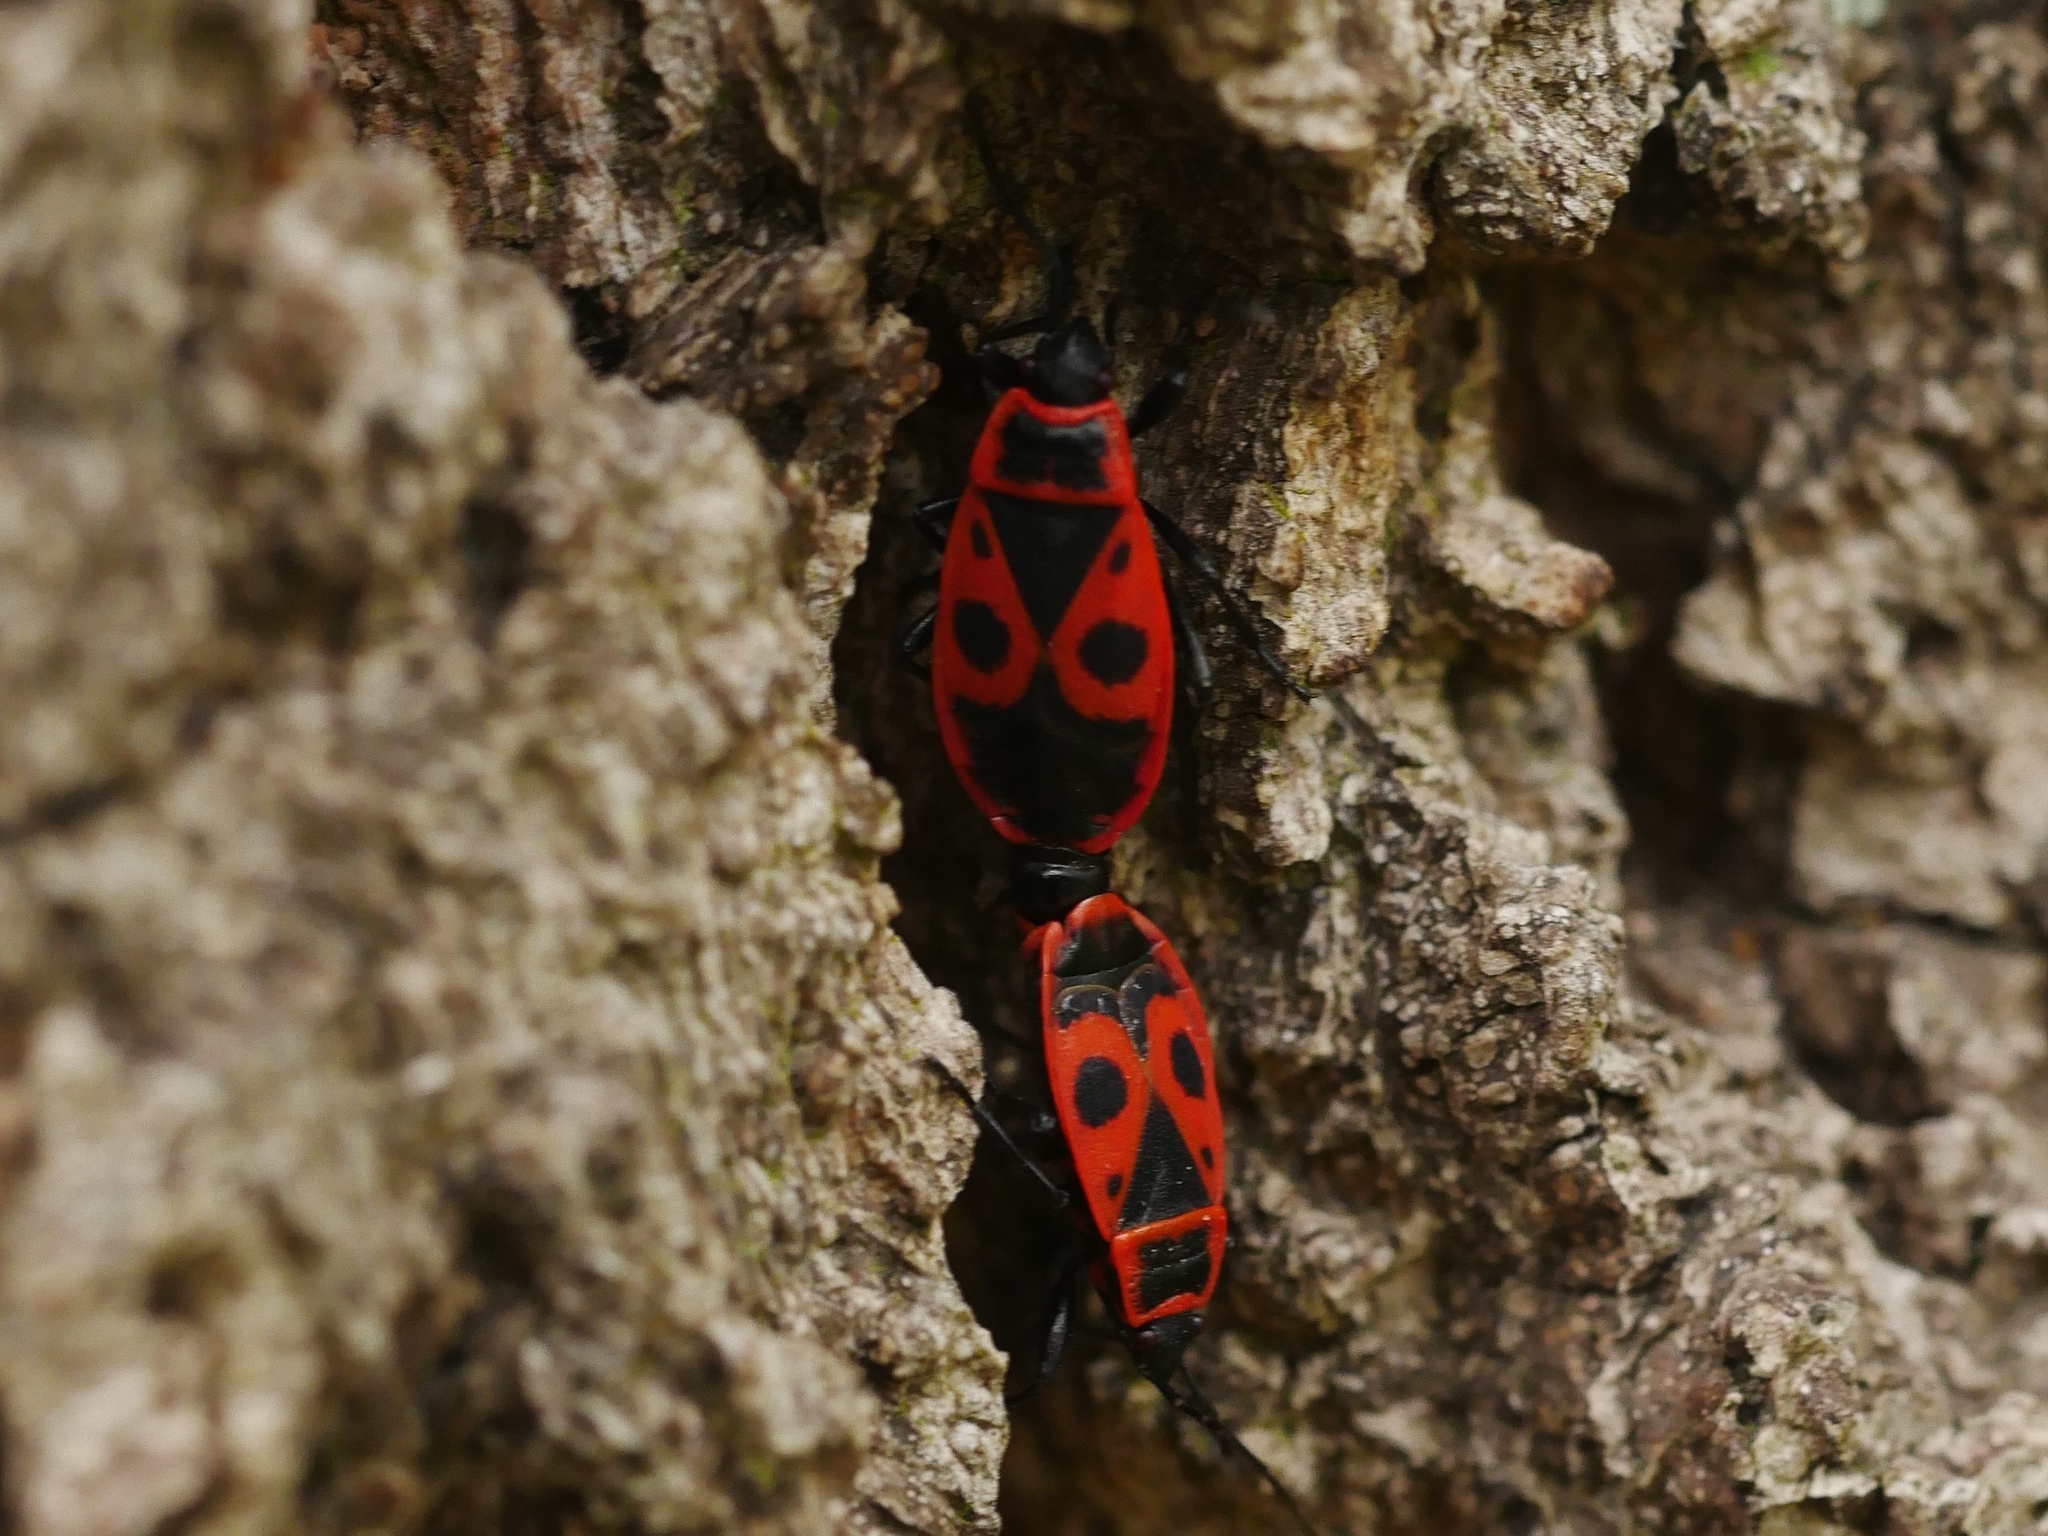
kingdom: Animalia
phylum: Arthropoda
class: Insecta
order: Hemiptera
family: Pyrrhocoridae
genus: Pyrrhocoris
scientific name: Pyrrhocoris apterus
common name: Firebug
